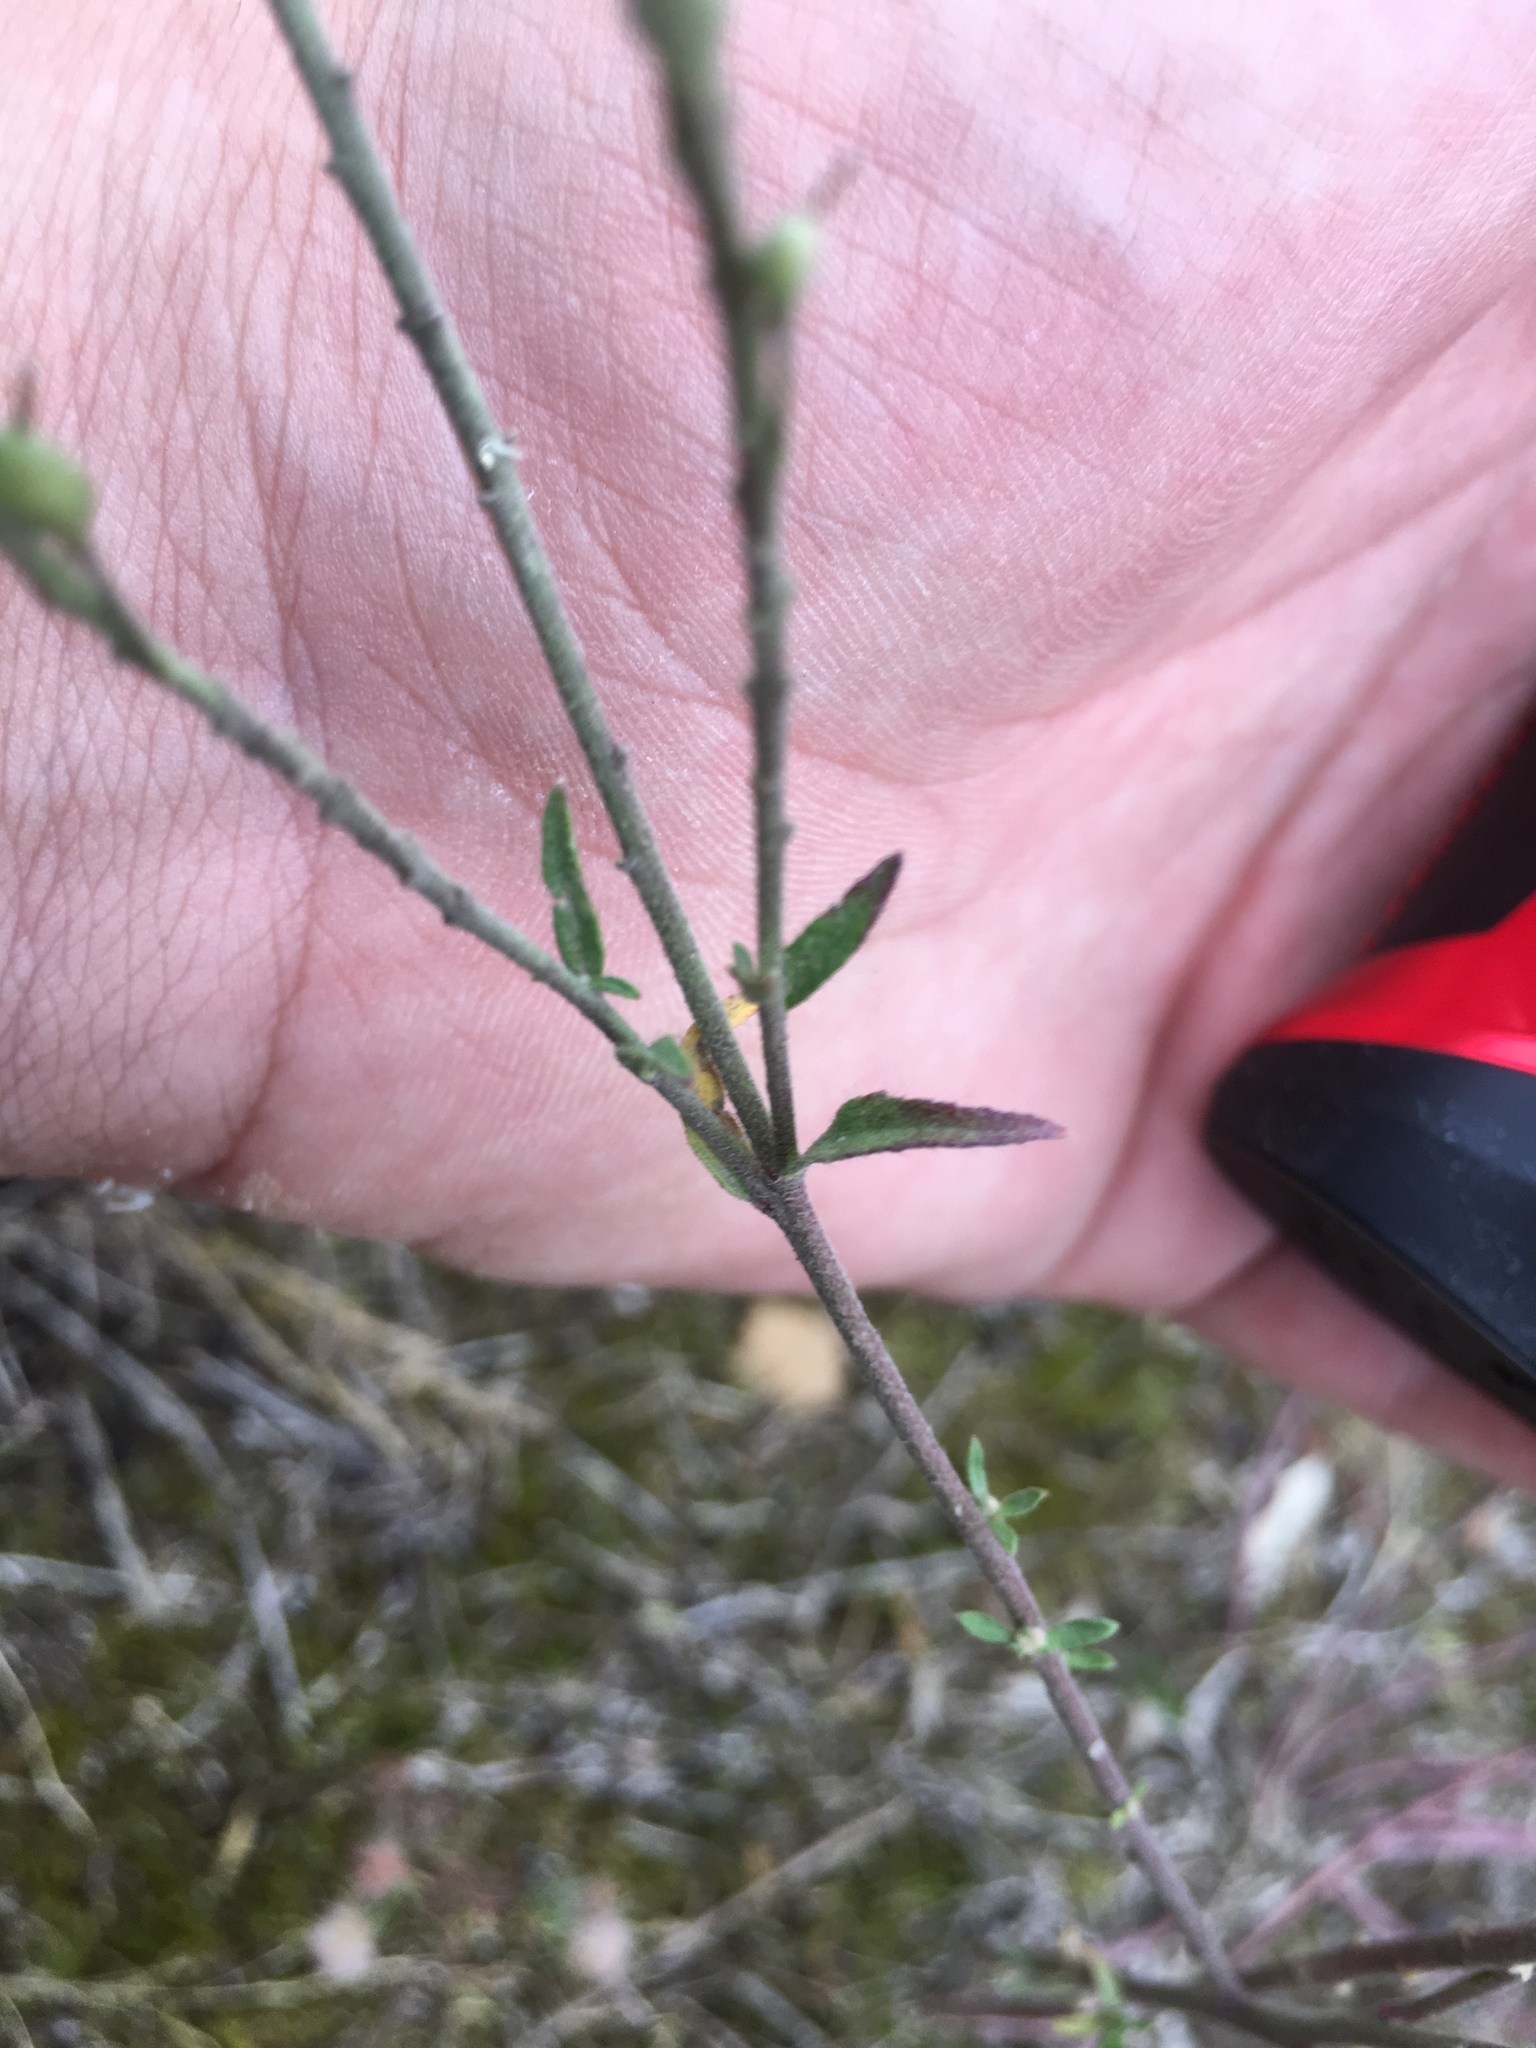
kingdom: Plantae
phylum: Tracheophyta
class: Magnoliopsida
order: Brassicales
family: Brassicaceae
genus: Berteroa
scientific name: Berteroa incana
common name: Hoary alison
